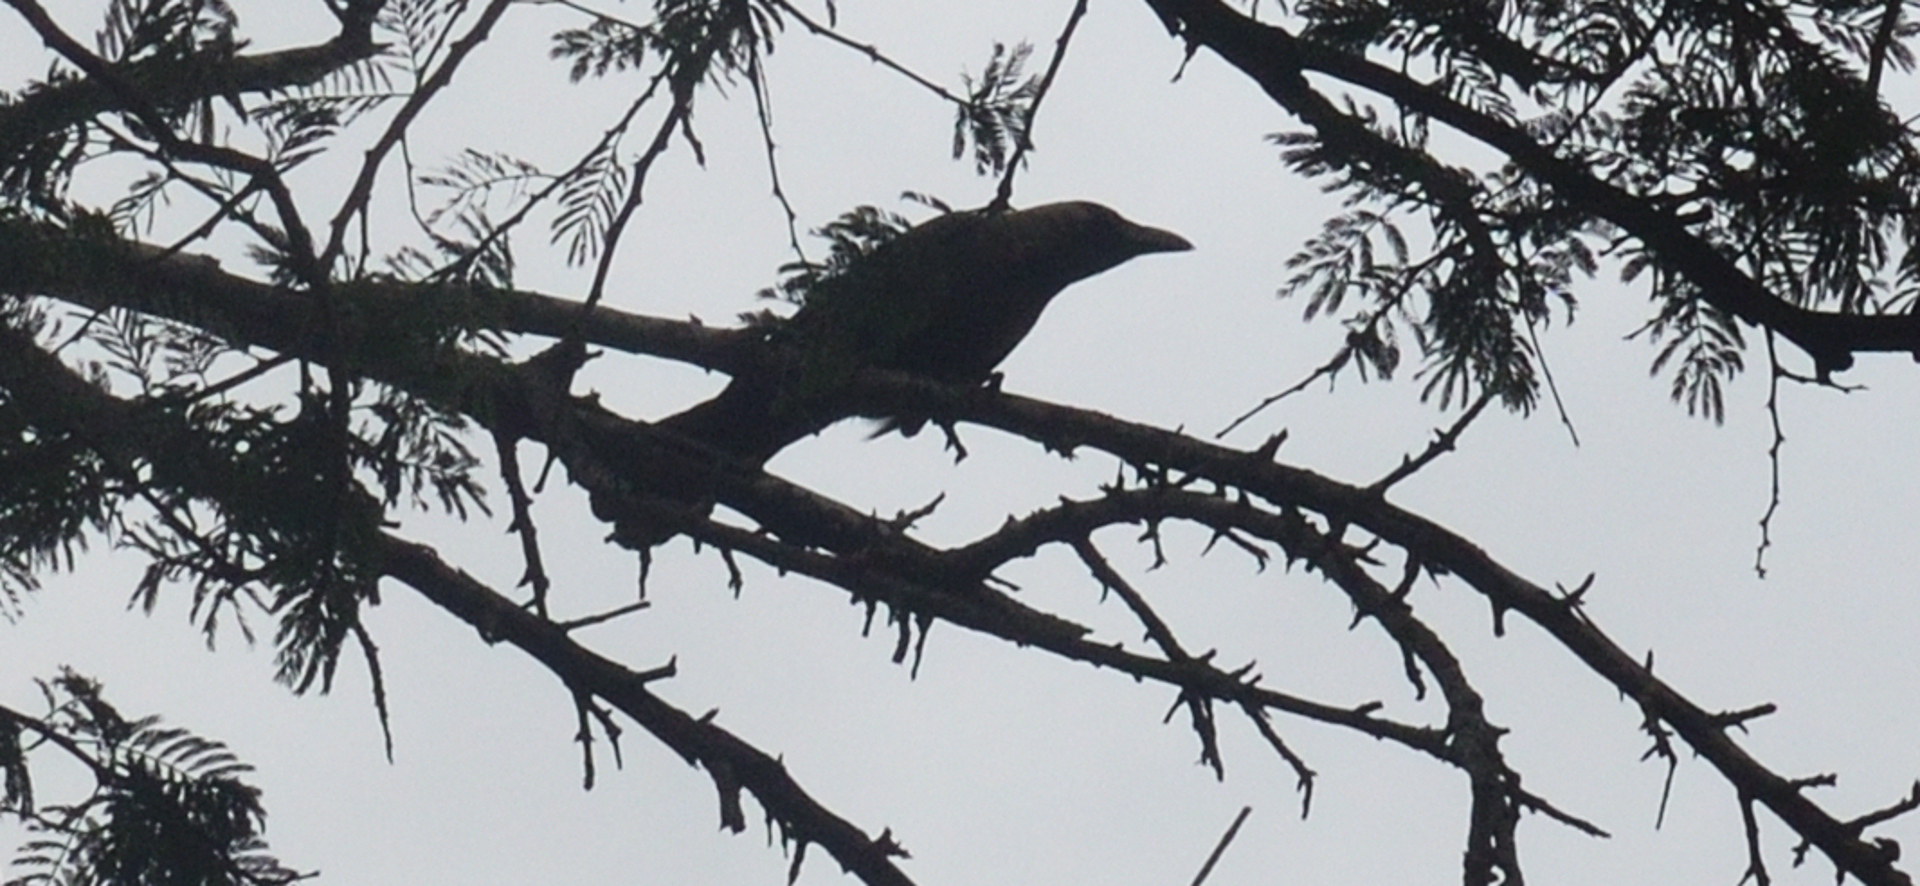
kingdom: Animalia
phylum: Chordata
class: Aves
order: Passeriformes
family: Corvidae
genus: Corvus
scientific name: Corvus splendens
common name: House crow
